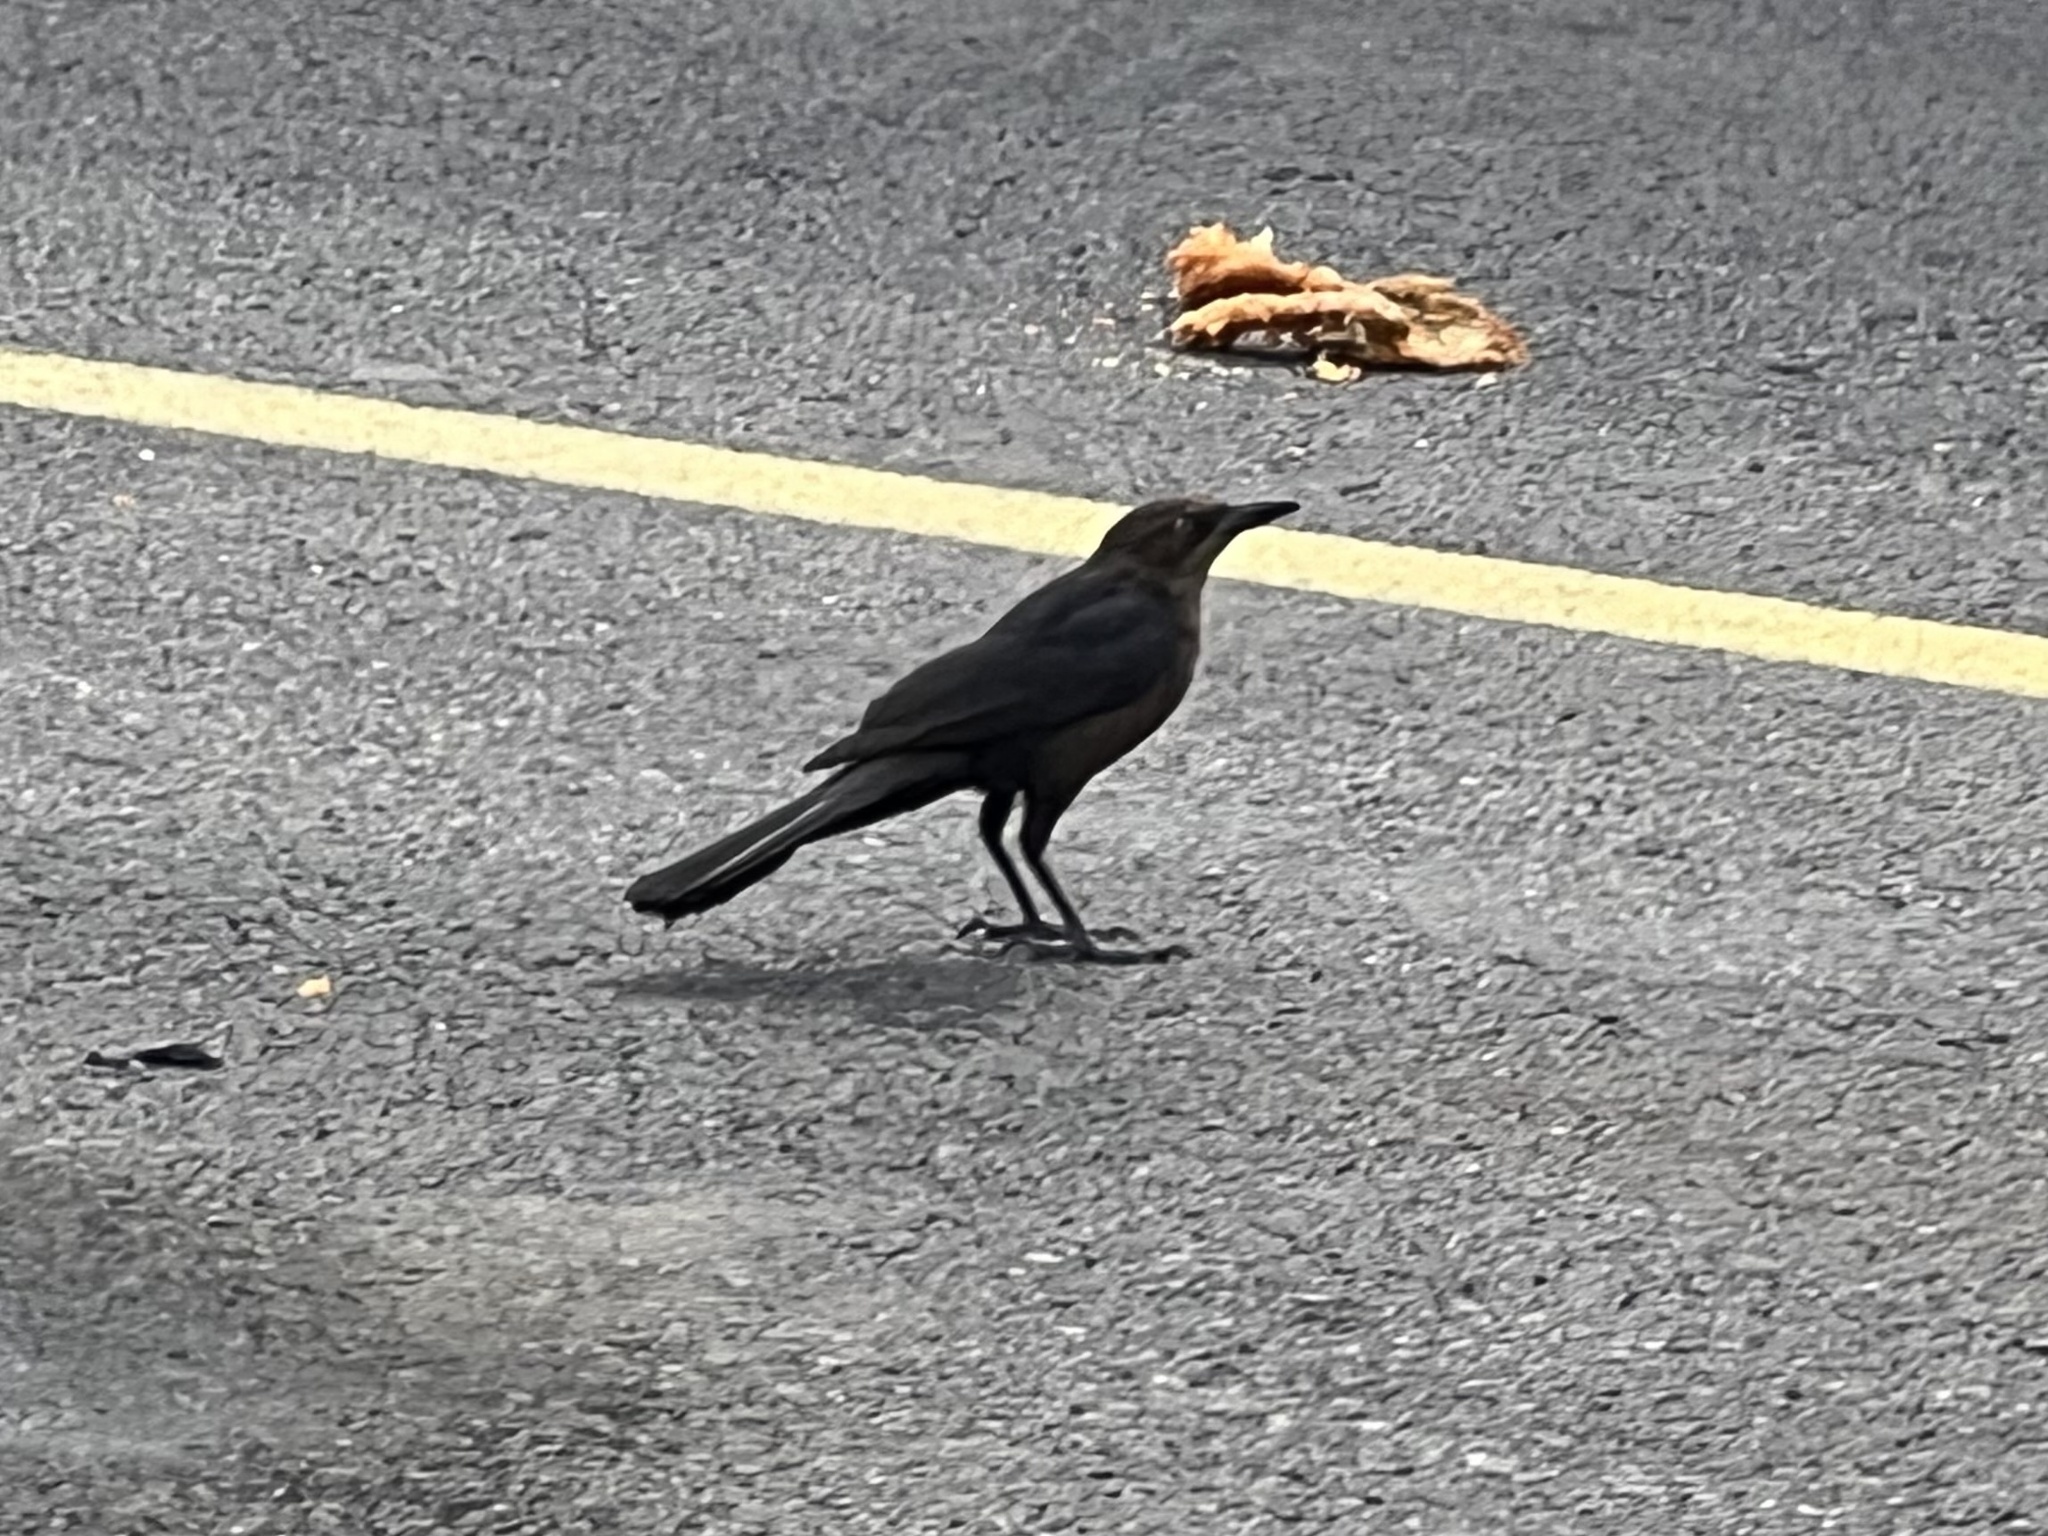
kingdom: Animalia
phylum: Chordata
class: Aves
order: Passeriformes
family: Icteridae
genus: Quiscalus
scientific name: Quiscalus mexicanus
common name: Great-tailed grackle
